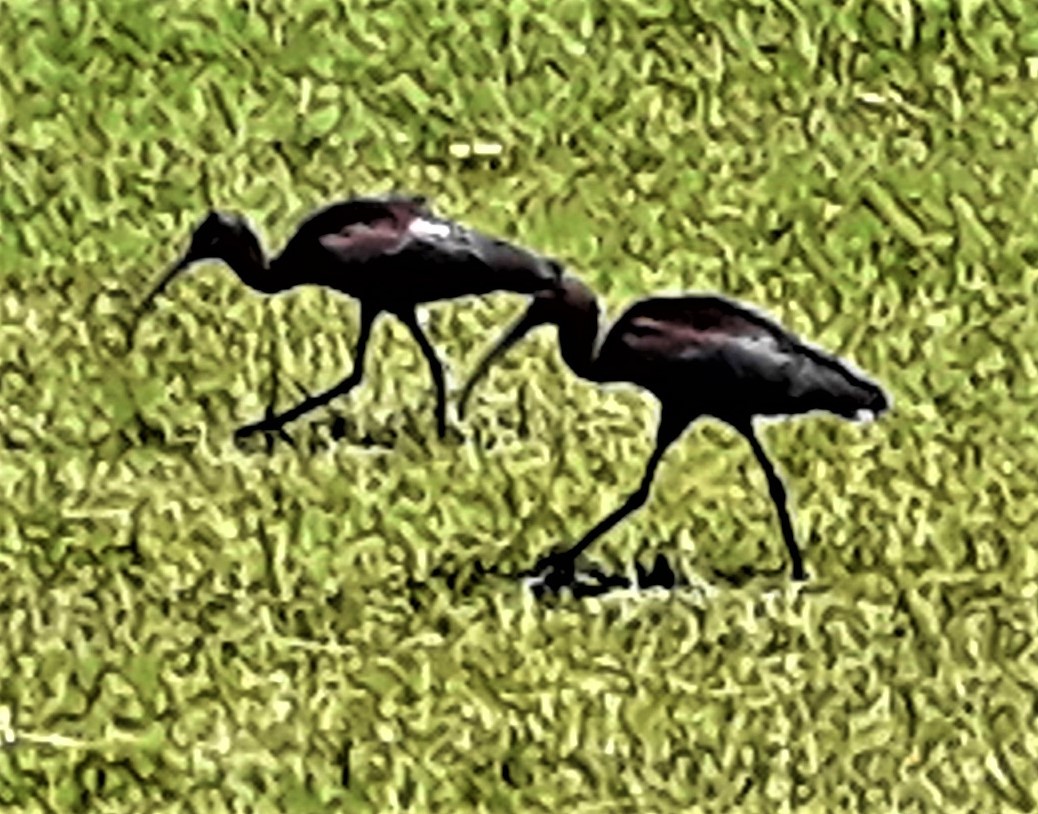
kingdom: Animalia
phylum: Chordata
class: Aves
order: Pelecaniformes
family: Threskiornithidae
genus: Plegadis
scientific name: Plegadis chihi
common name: White-faced ibis
